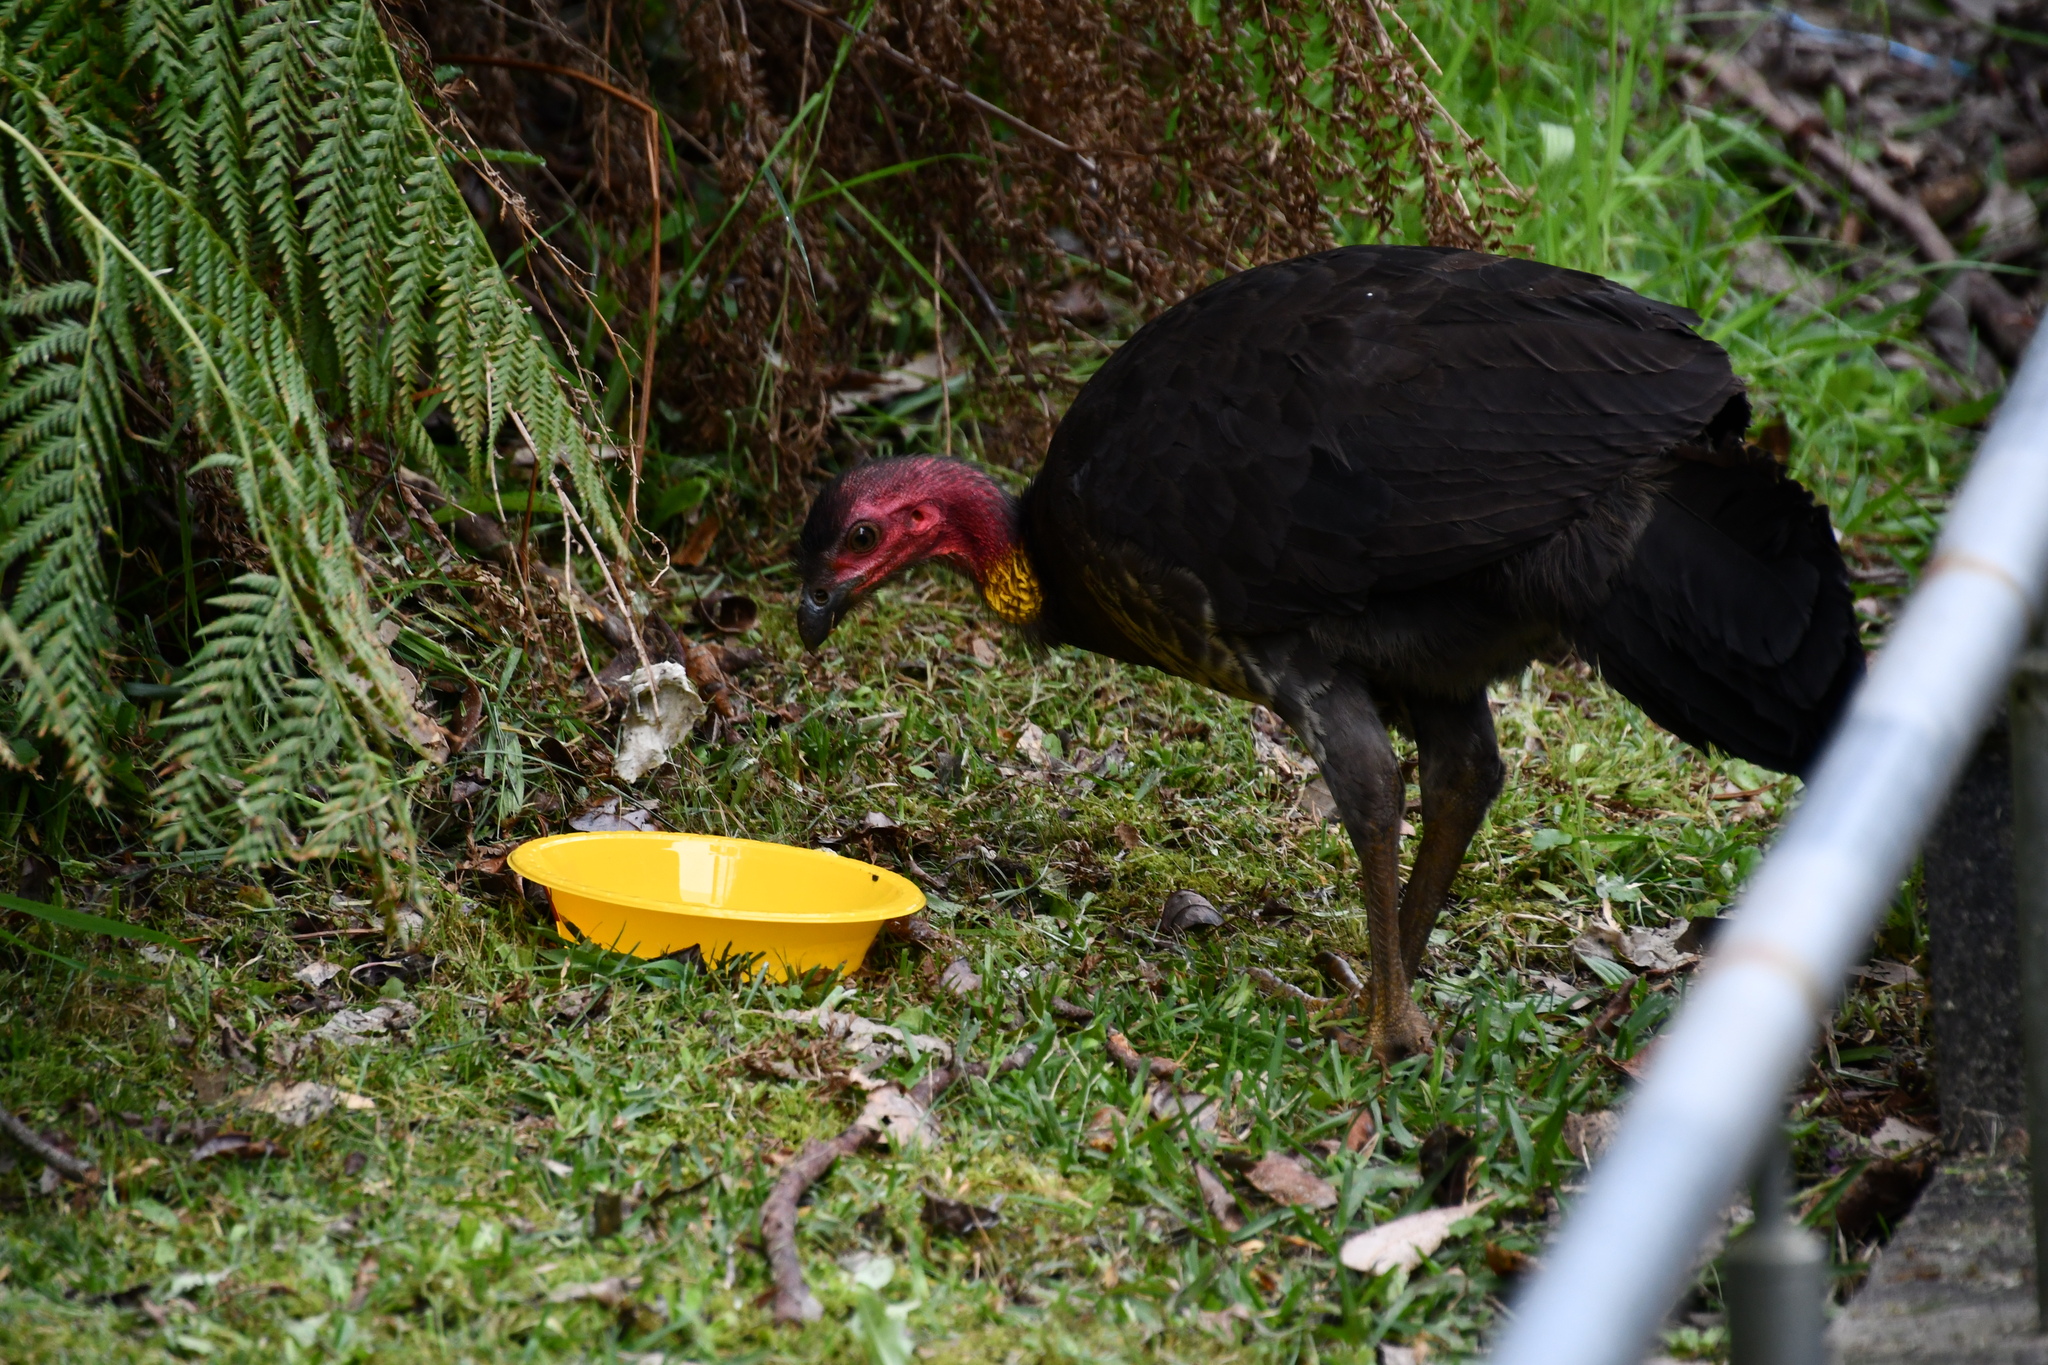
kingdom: Animalia
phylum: Chordata
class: Aves
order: Galliformes
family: Megapodiidae
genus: Alectura
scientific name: Alectura lathami
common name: Australian brushturkey
